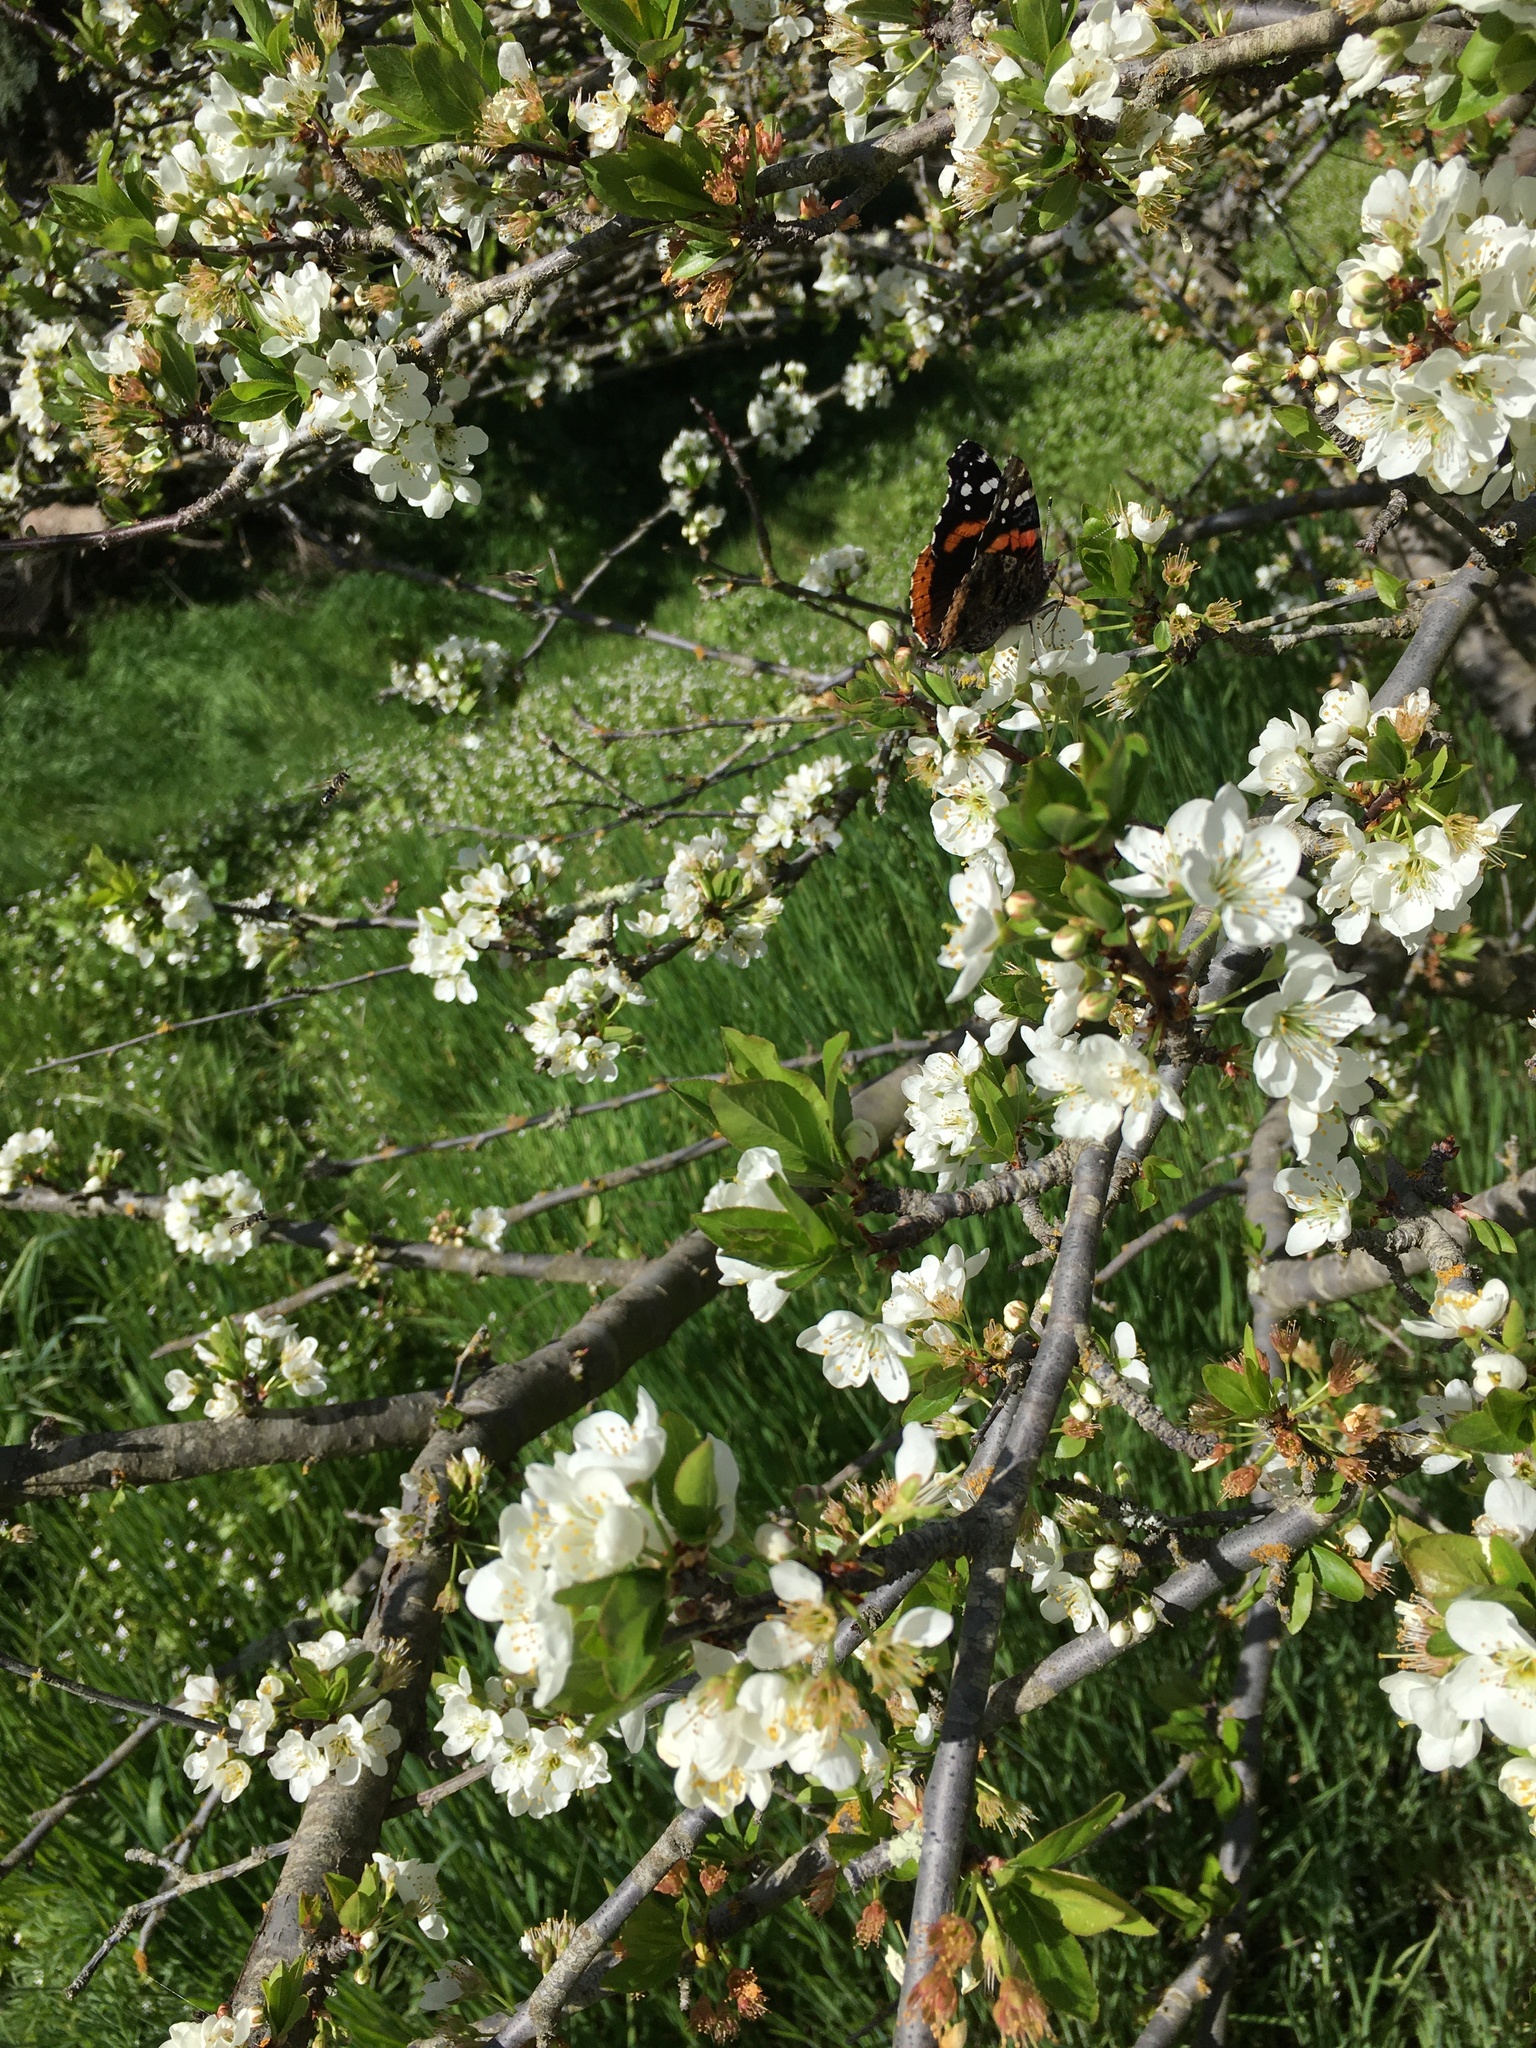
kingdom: Animalia
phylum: Arthropoda
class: Insecta
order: Lepidoptera
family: Nymphalidae
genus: Vanessa
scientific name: Vanessa atalanta
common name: Red admiral
